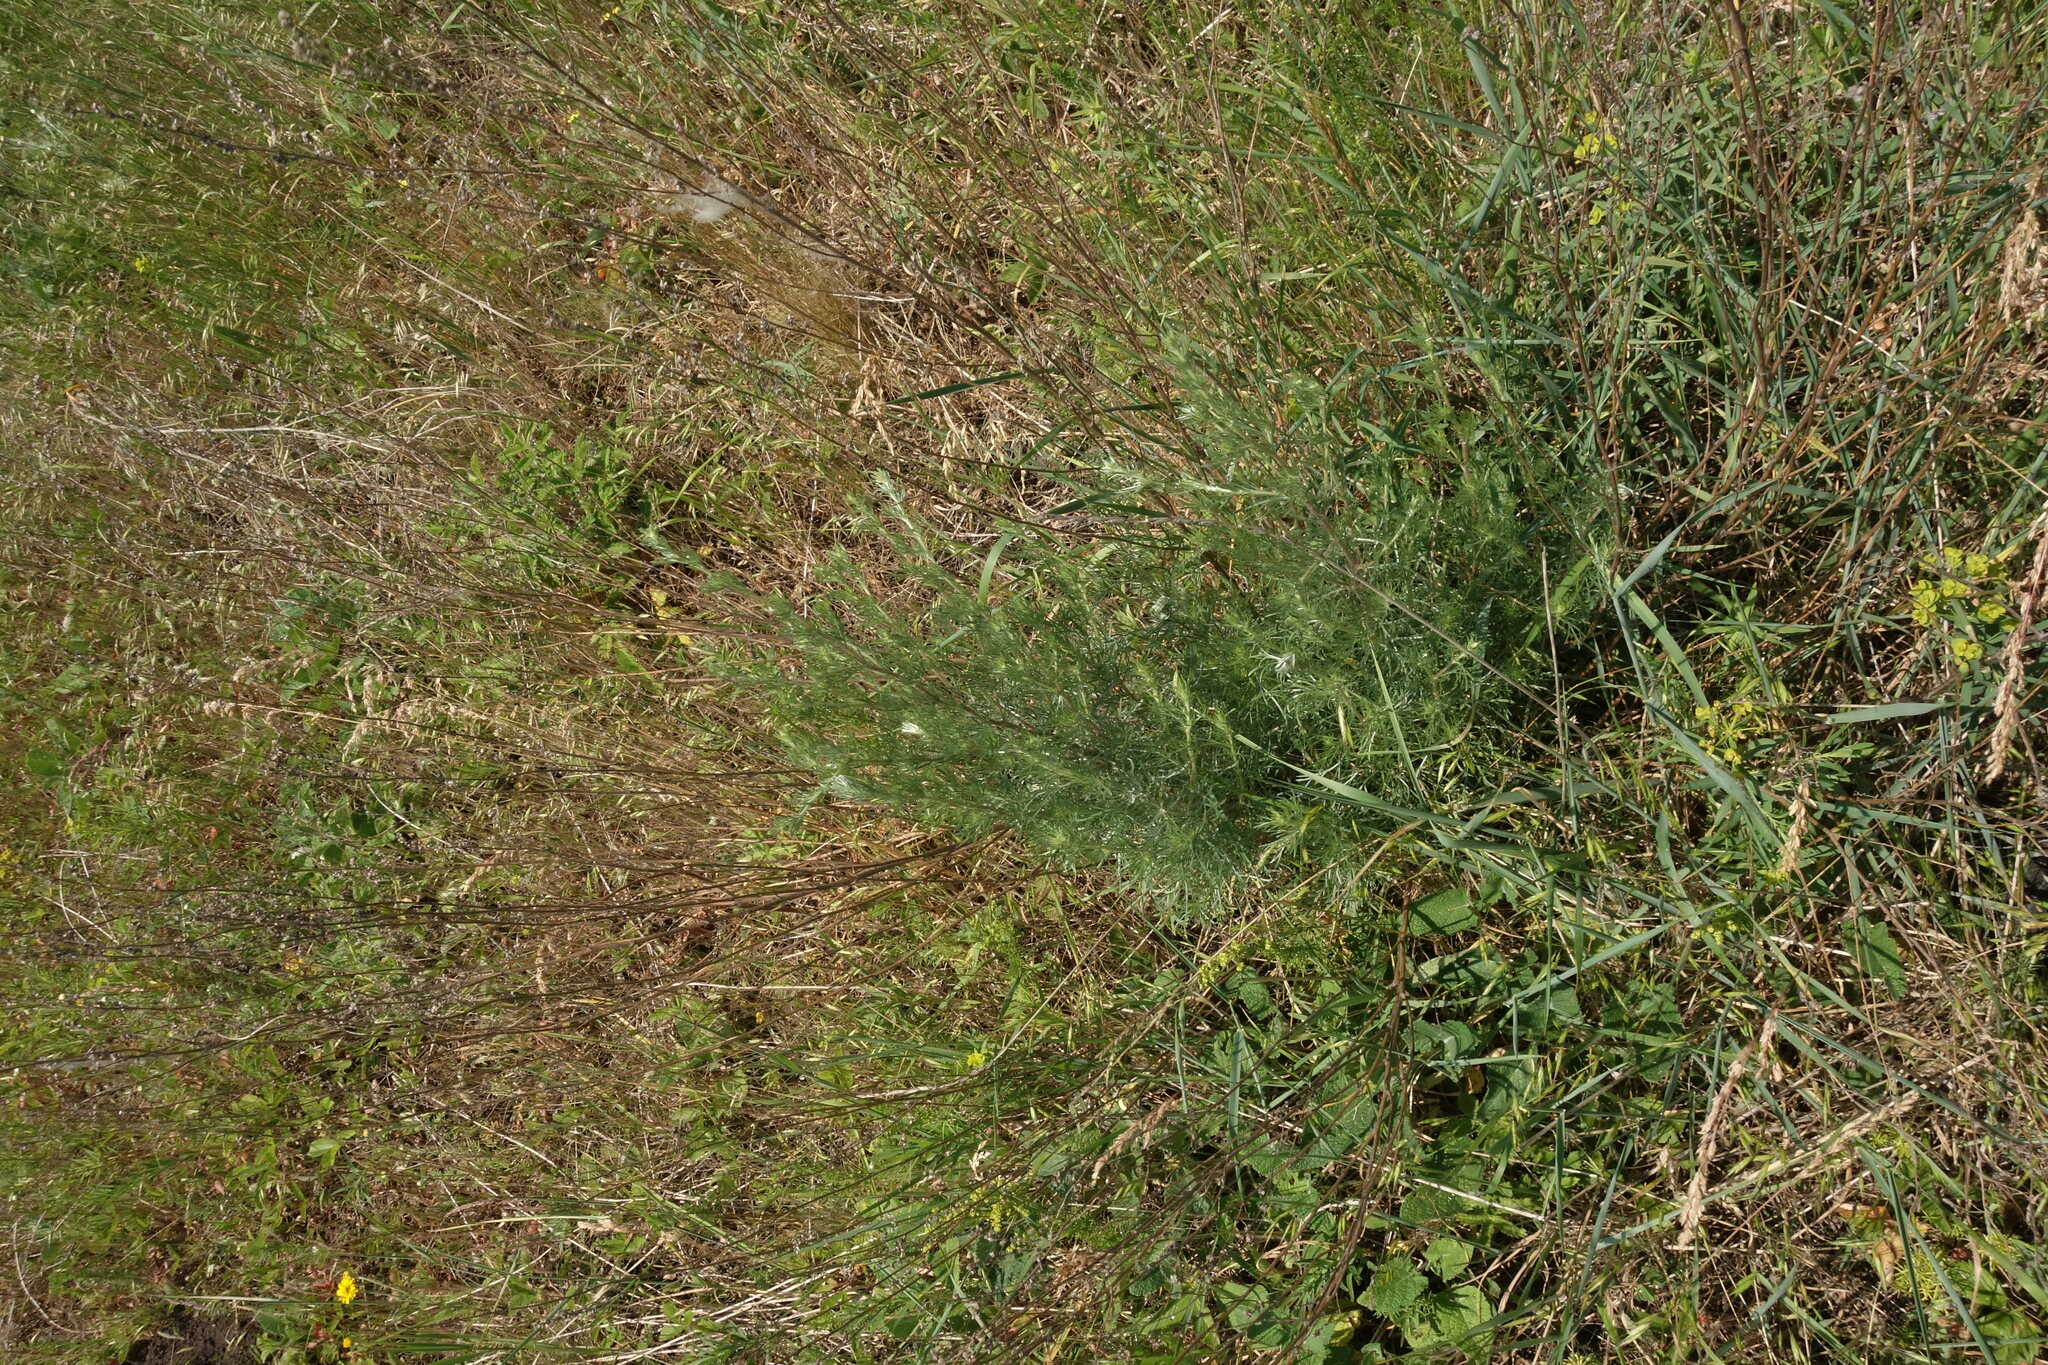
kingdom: Plantae
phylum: Tracheophyta
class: Magnoliopsida
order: Asterales
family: Asteraceae
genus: Artemisia
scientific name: Artemisia campestris
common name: Field wormwood
